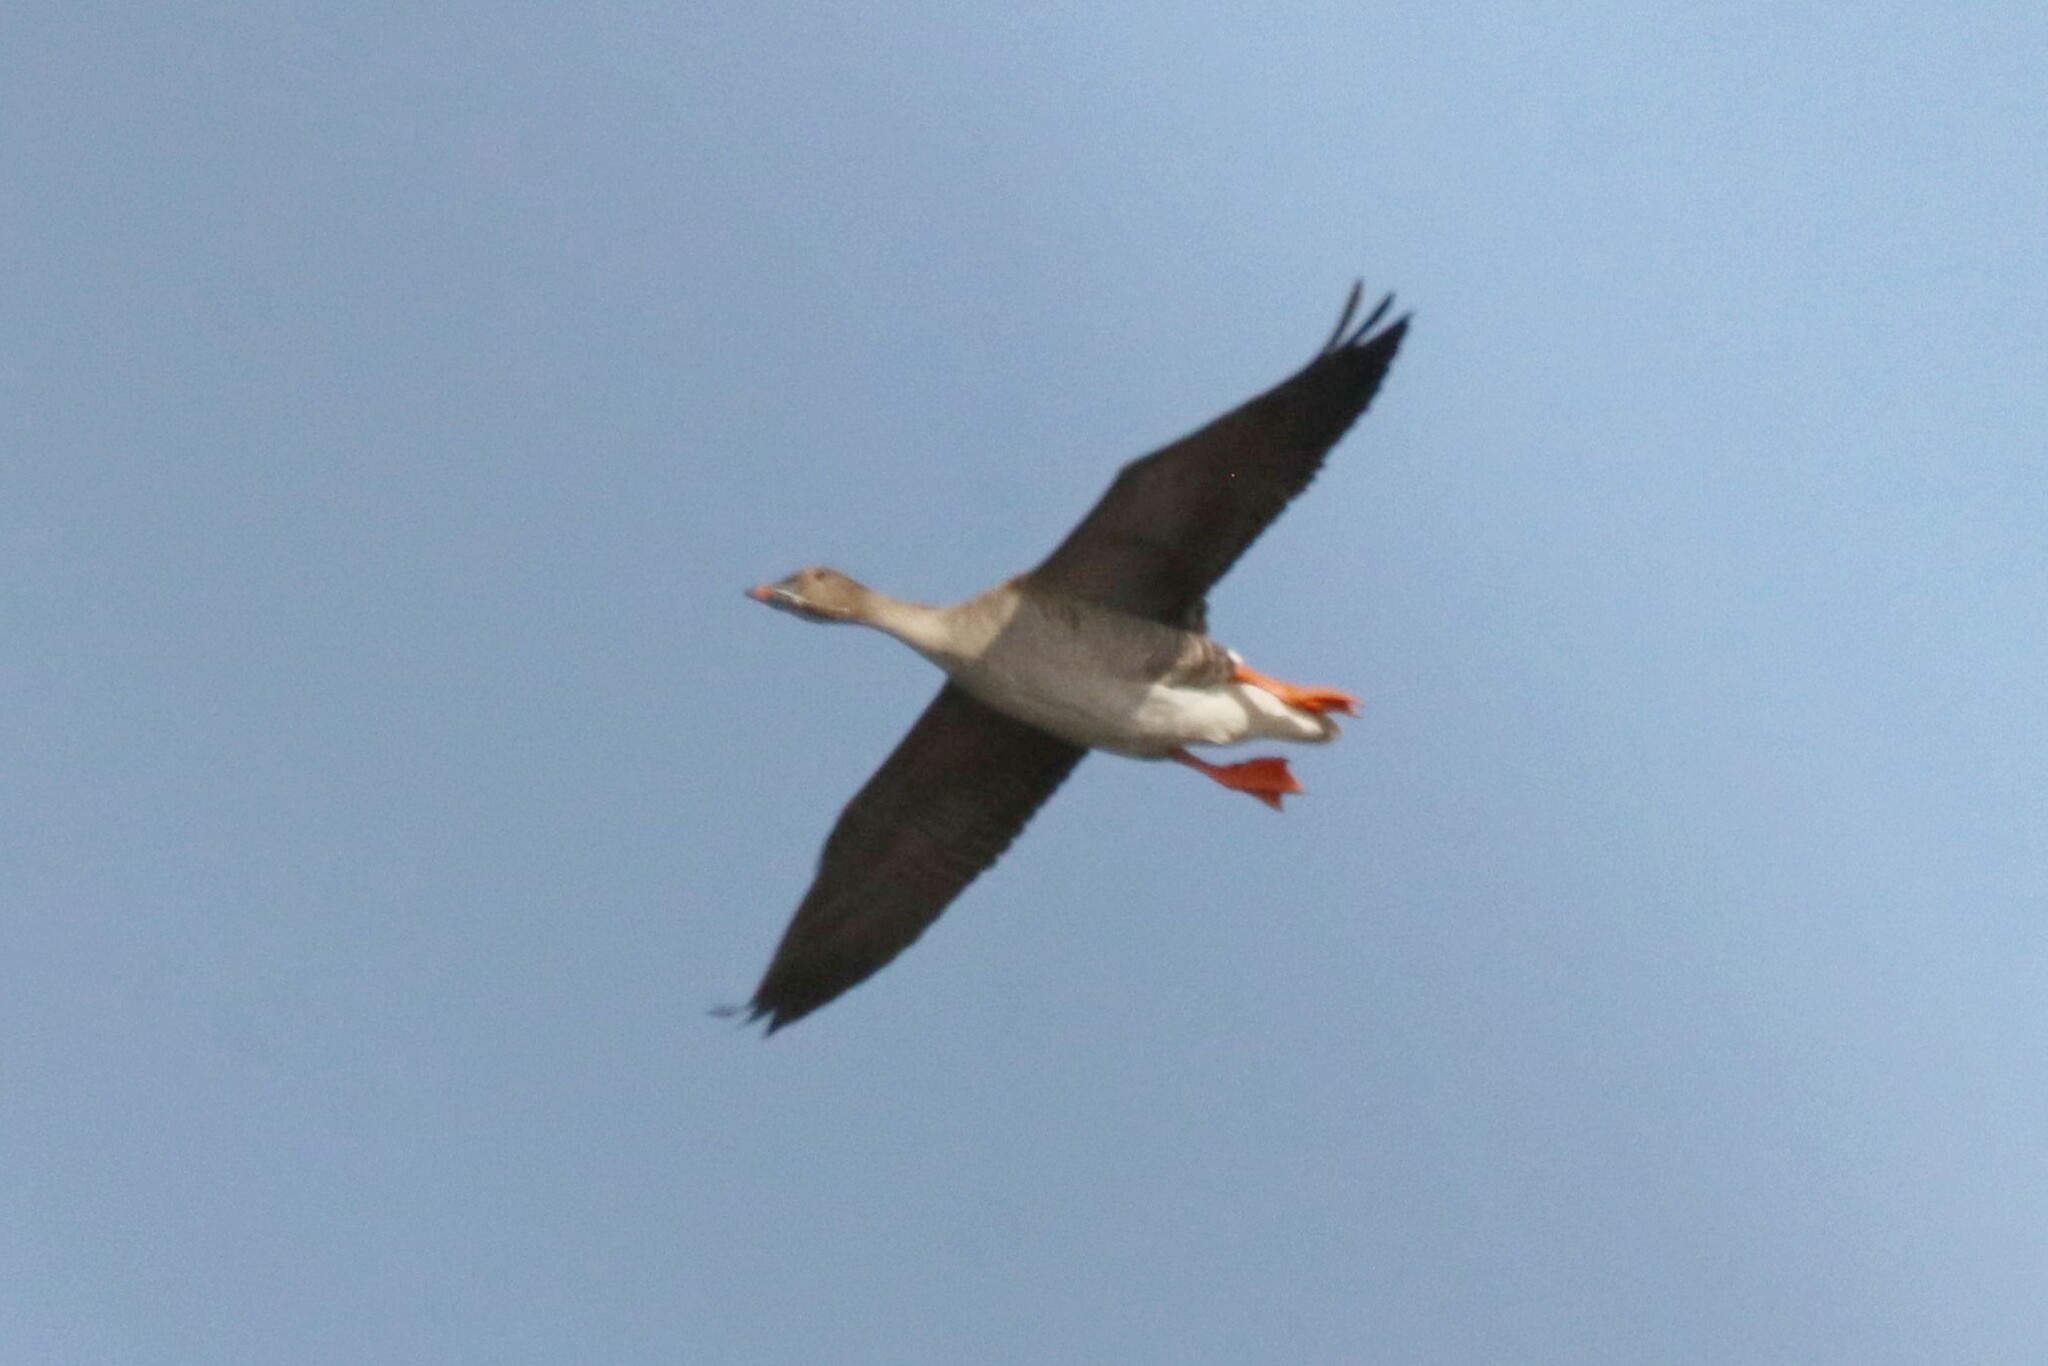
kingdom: Animalia
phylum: Chordata
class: Aves
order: Anseriformes
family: Anatidae
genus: Anser
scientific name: Anser serrirostris
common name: Tundra bean goose
